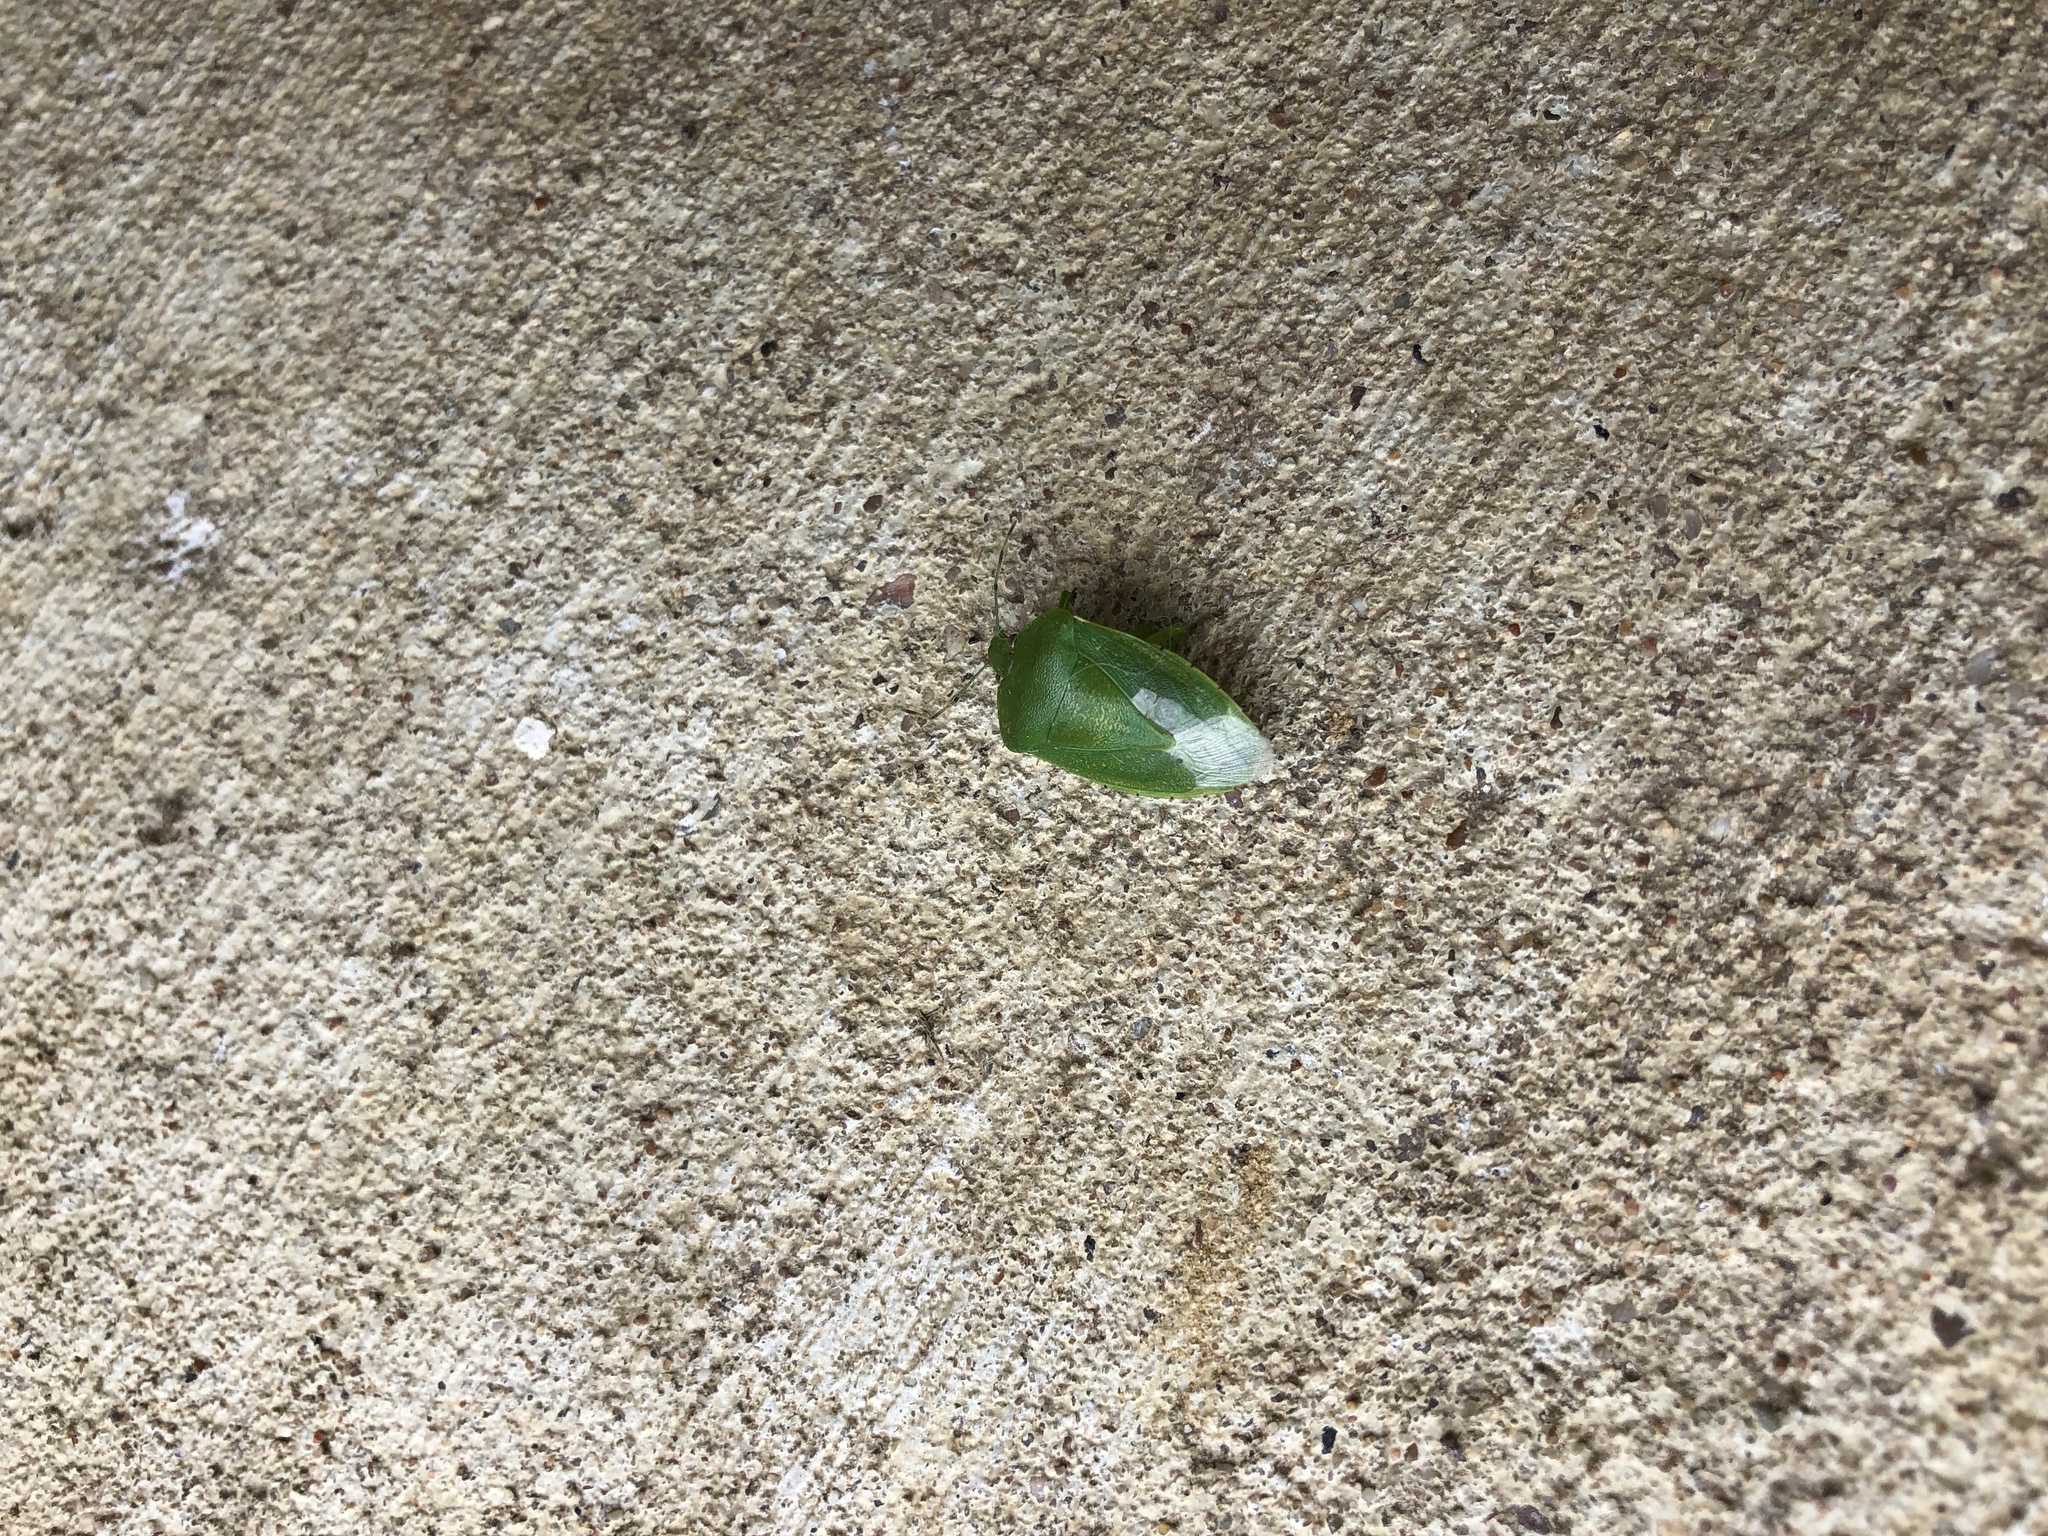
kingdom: Animalia
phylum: Arthropoda
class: Insecta
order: Hemiptera
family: Pentatomidae
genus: Chinavia
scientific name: Chinavia hilaris
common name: Green stink bug
